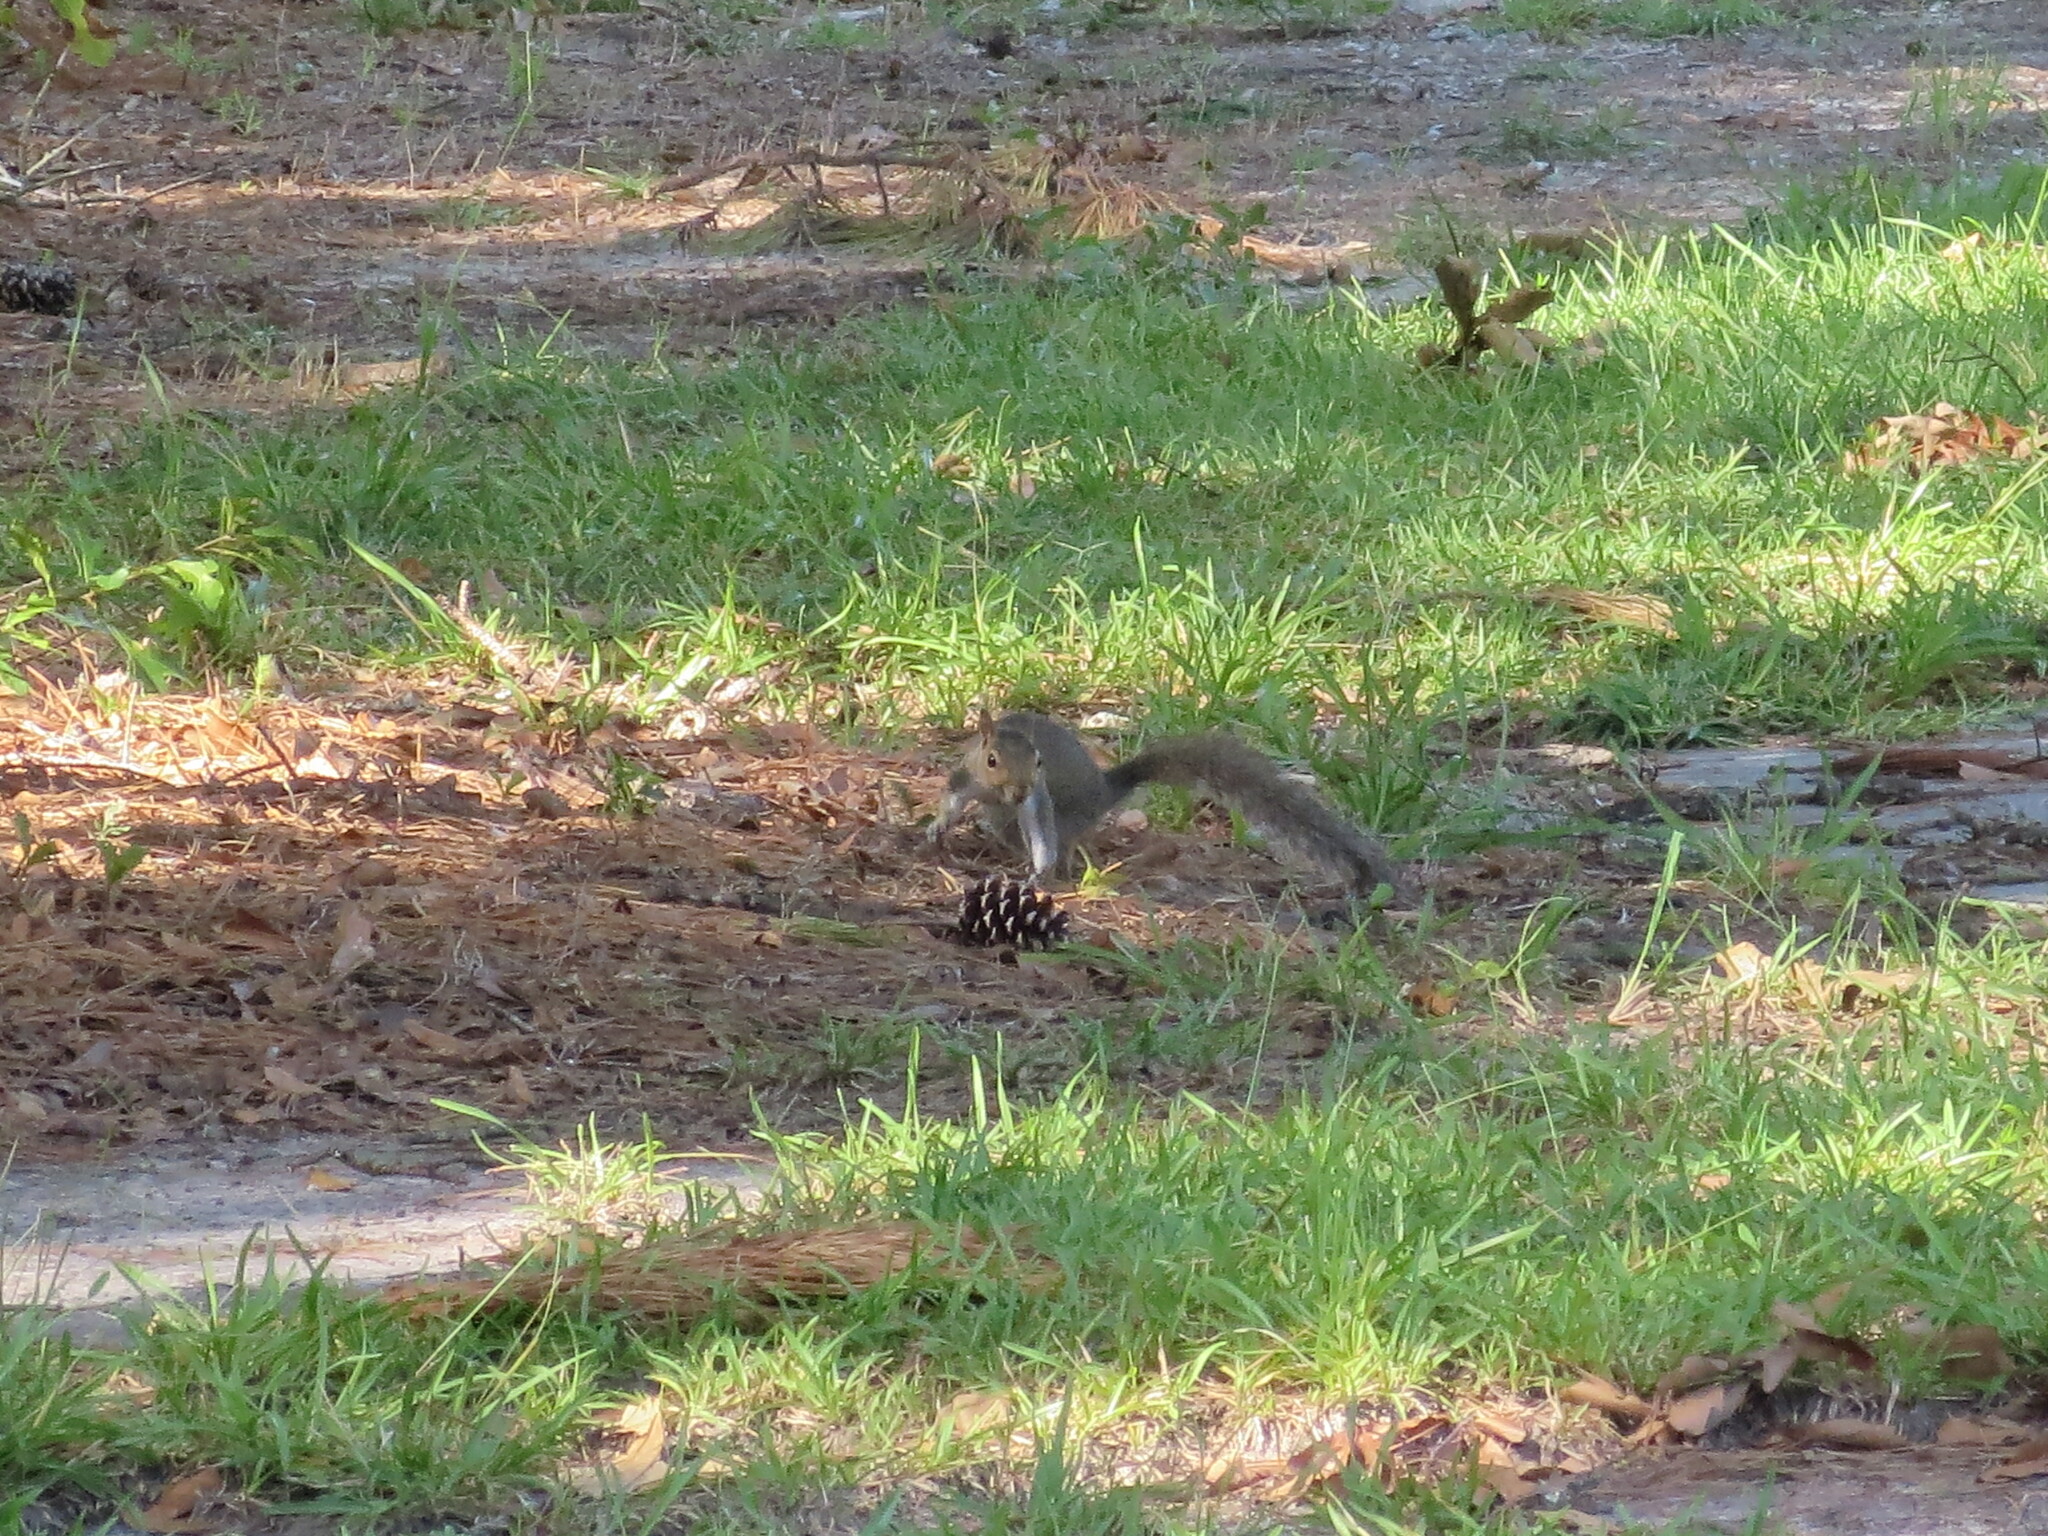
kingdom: Animalia
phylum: Chordata
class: Mammalia
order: Rodentia
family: Sciuridae
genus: Sciurus
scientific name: Sciurus carolinensis
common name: Eastern gray squirrel
